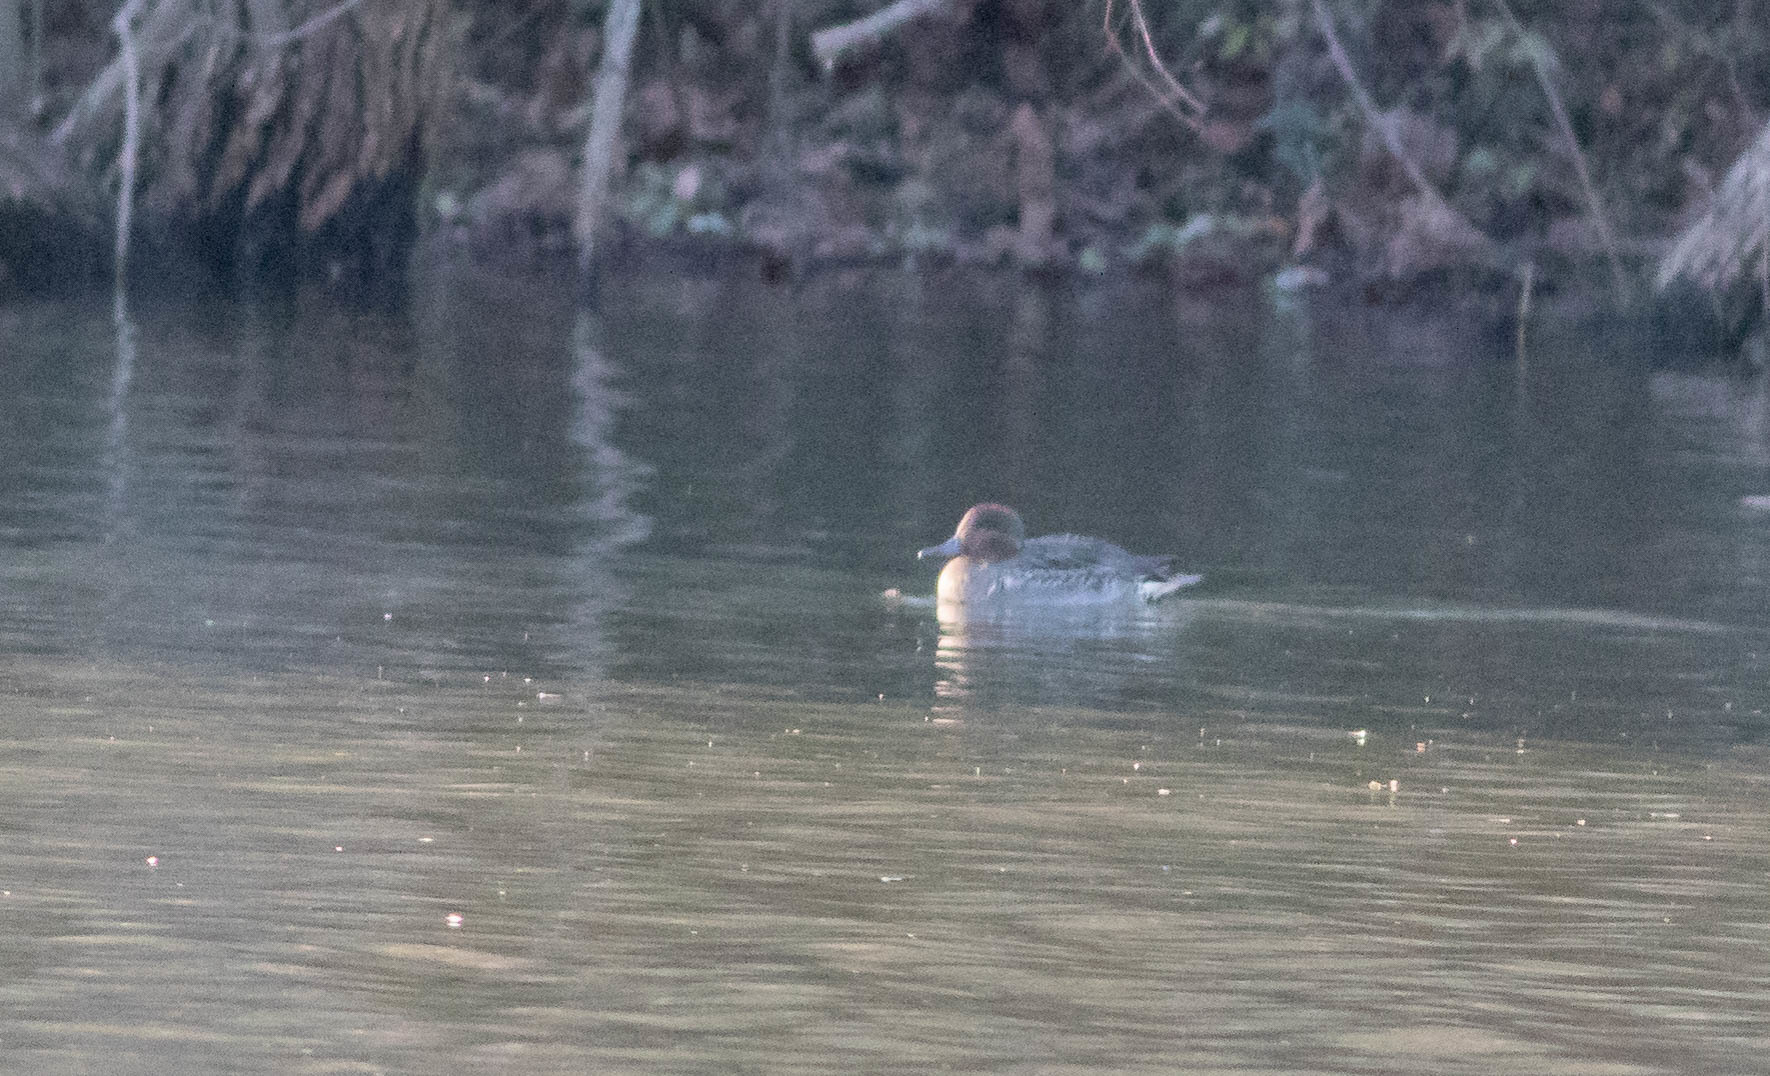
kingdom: Animalia
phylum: Chordata
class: Aves
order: Anseriformes
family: Anatidae
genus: Anas
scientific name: Anas crecca
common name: Eurasian teal
